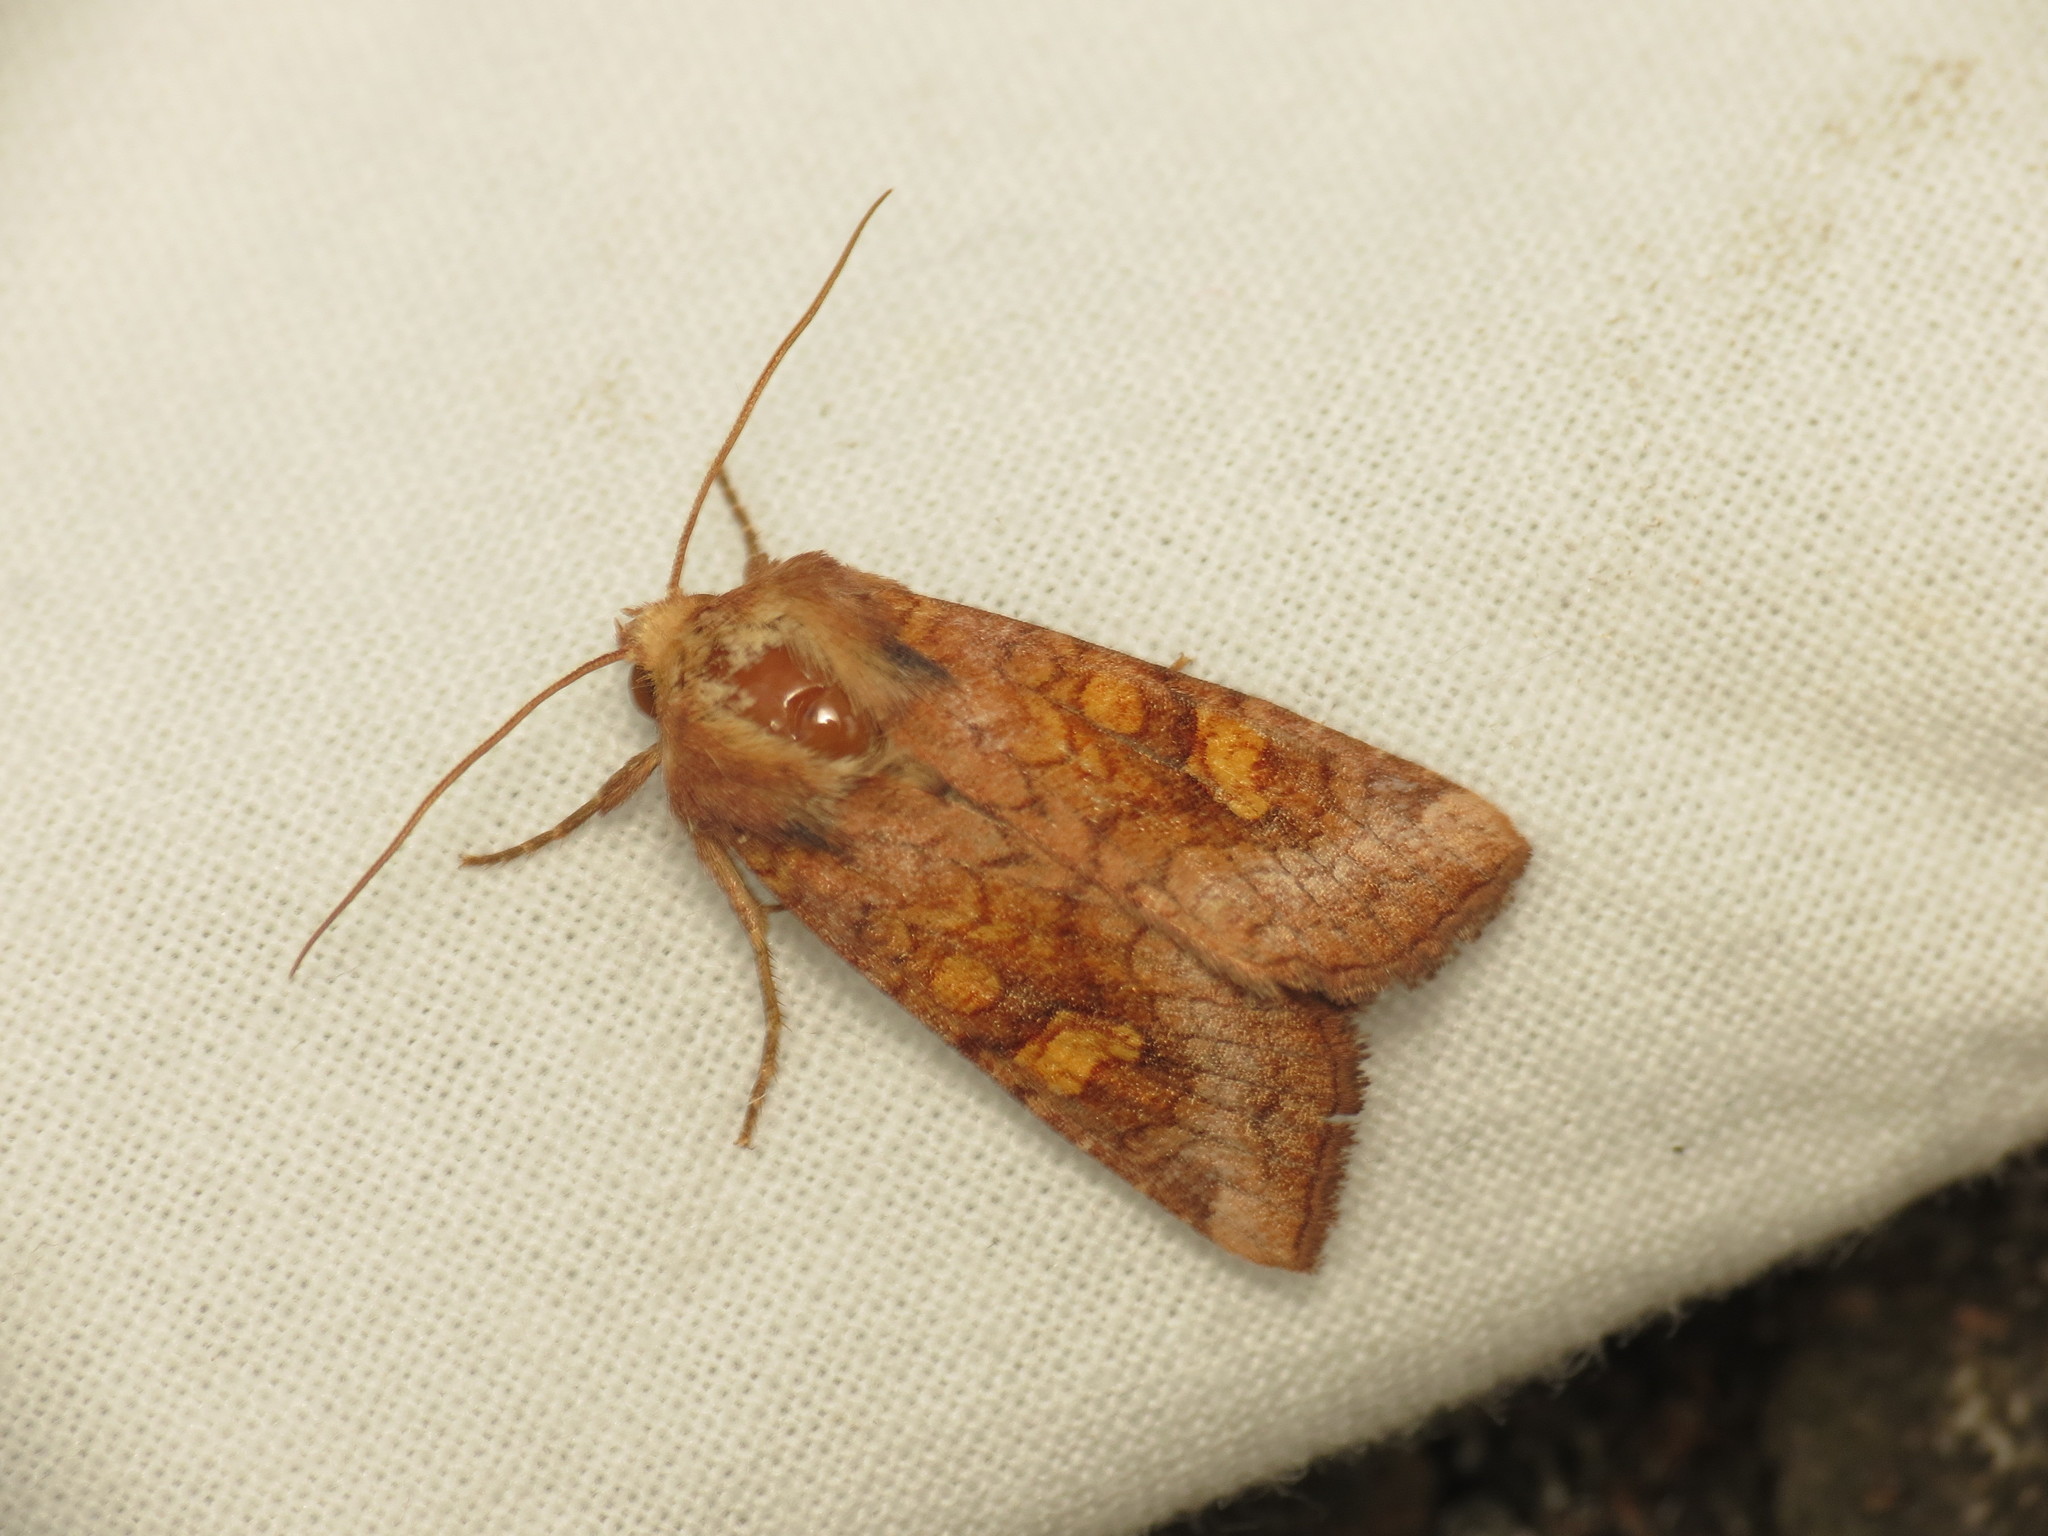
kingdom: Animalia
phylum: Arthropoda
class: Insecta
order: Lepidoptera
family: Noctuidae
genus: Amphipoea
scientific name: Amphipoea
